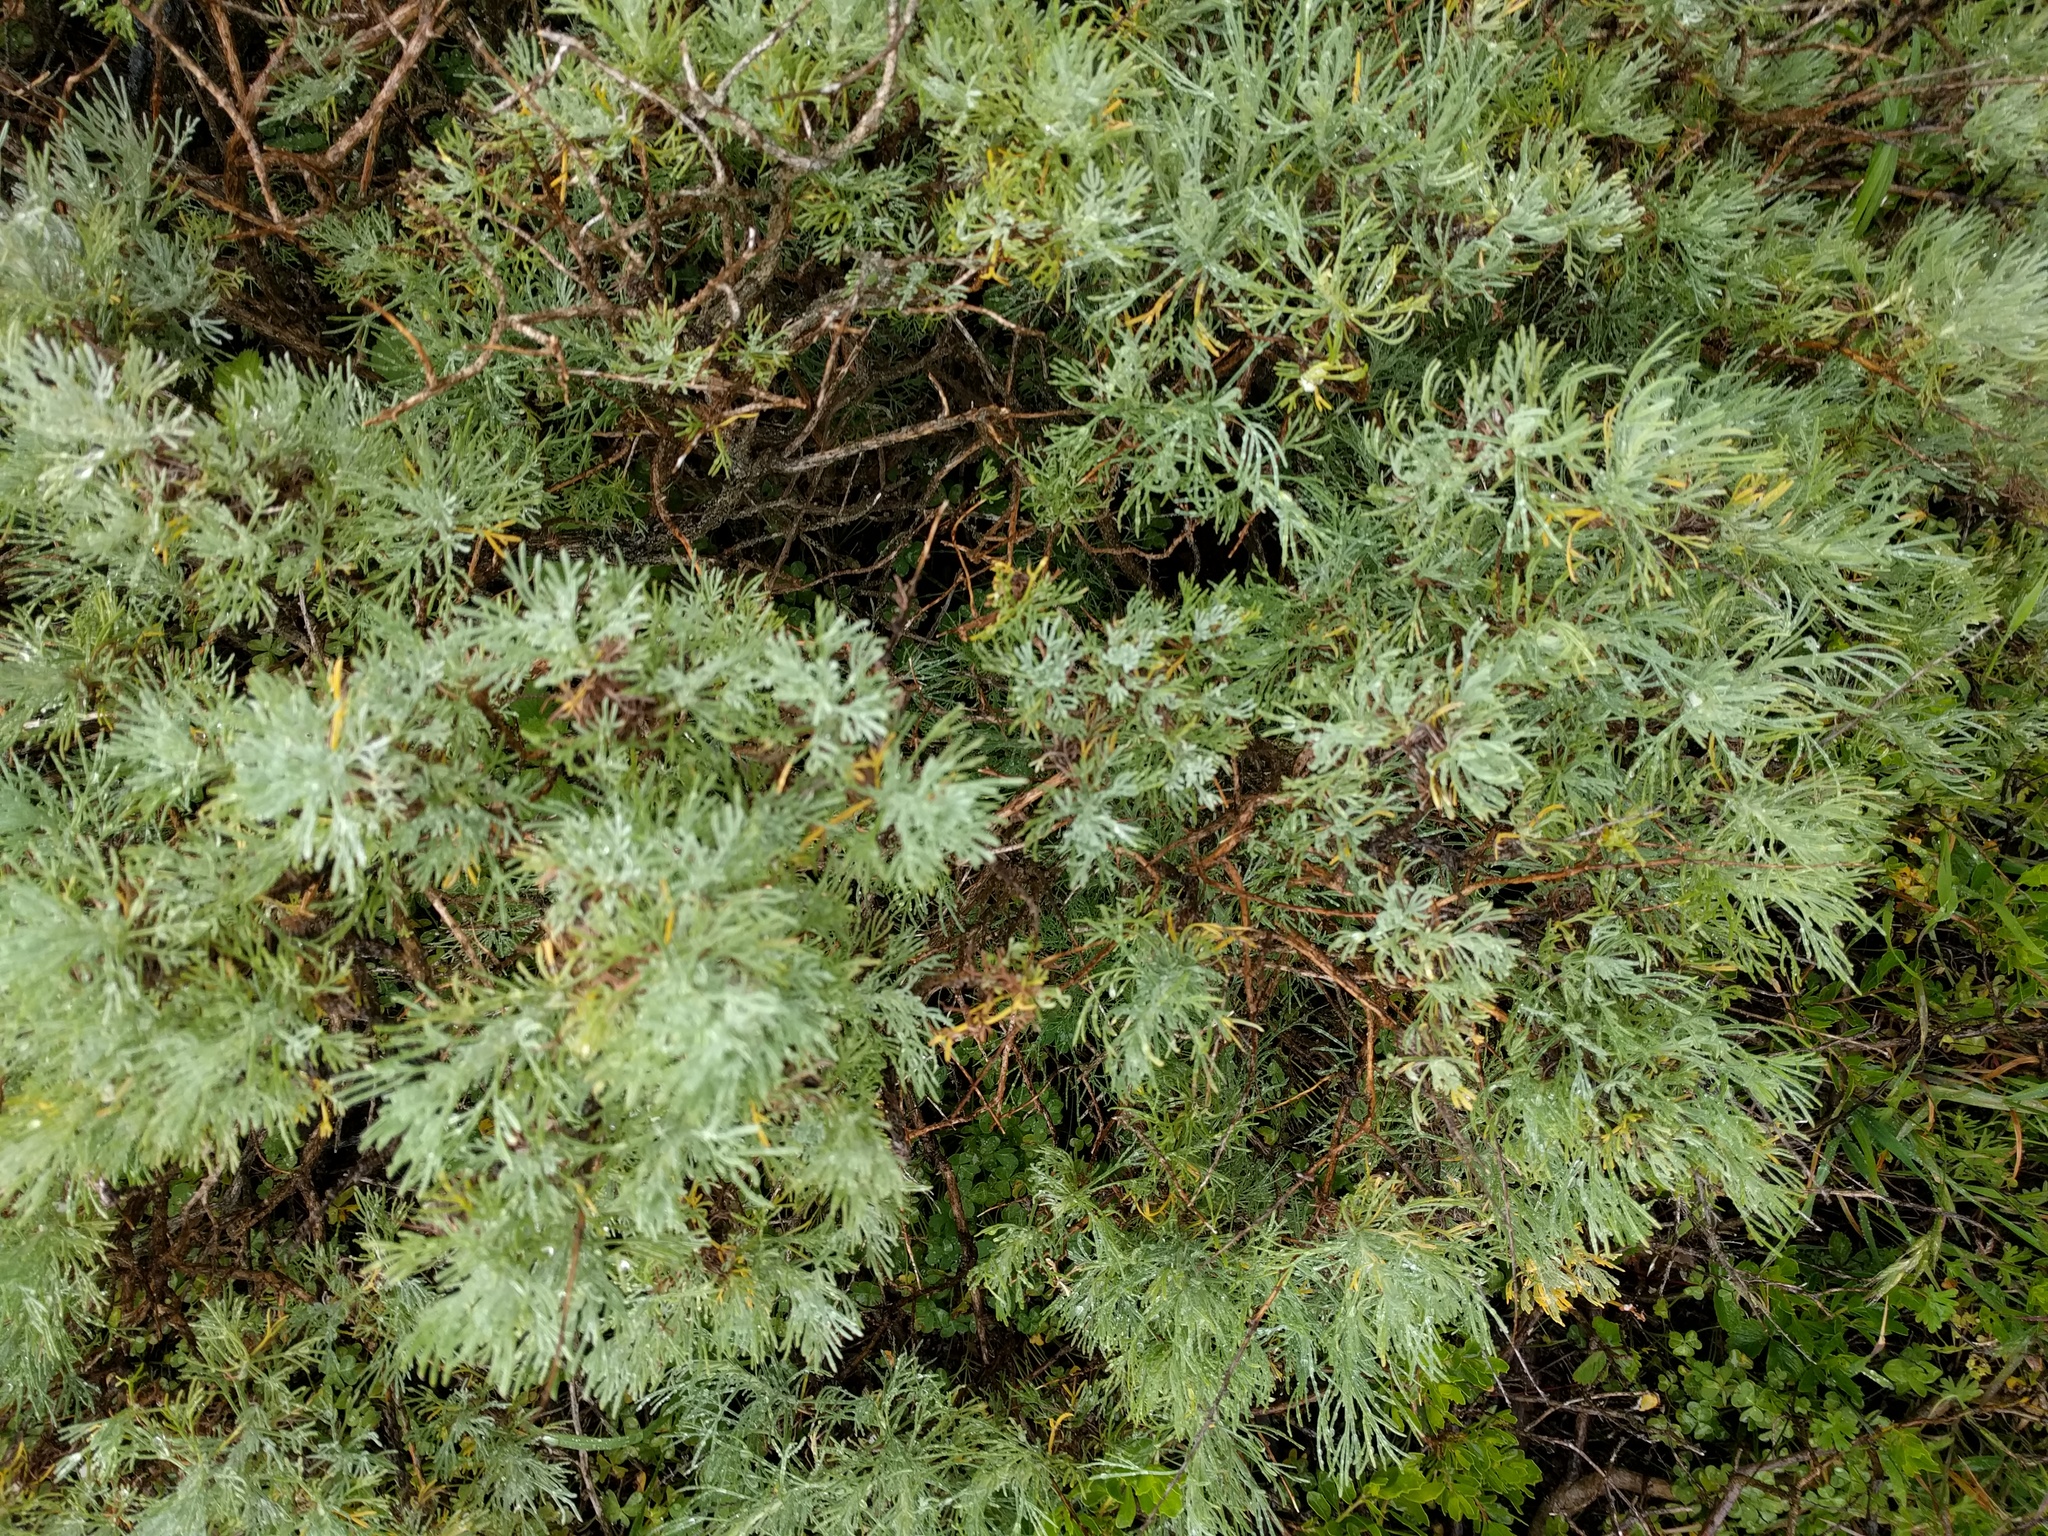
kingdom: Plantae
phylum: Tracheophyta
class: Magnoliopsida
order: Asterales
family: Asteraceae
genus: Artemisia
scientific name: Artemisia californica
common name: California sagebrush
